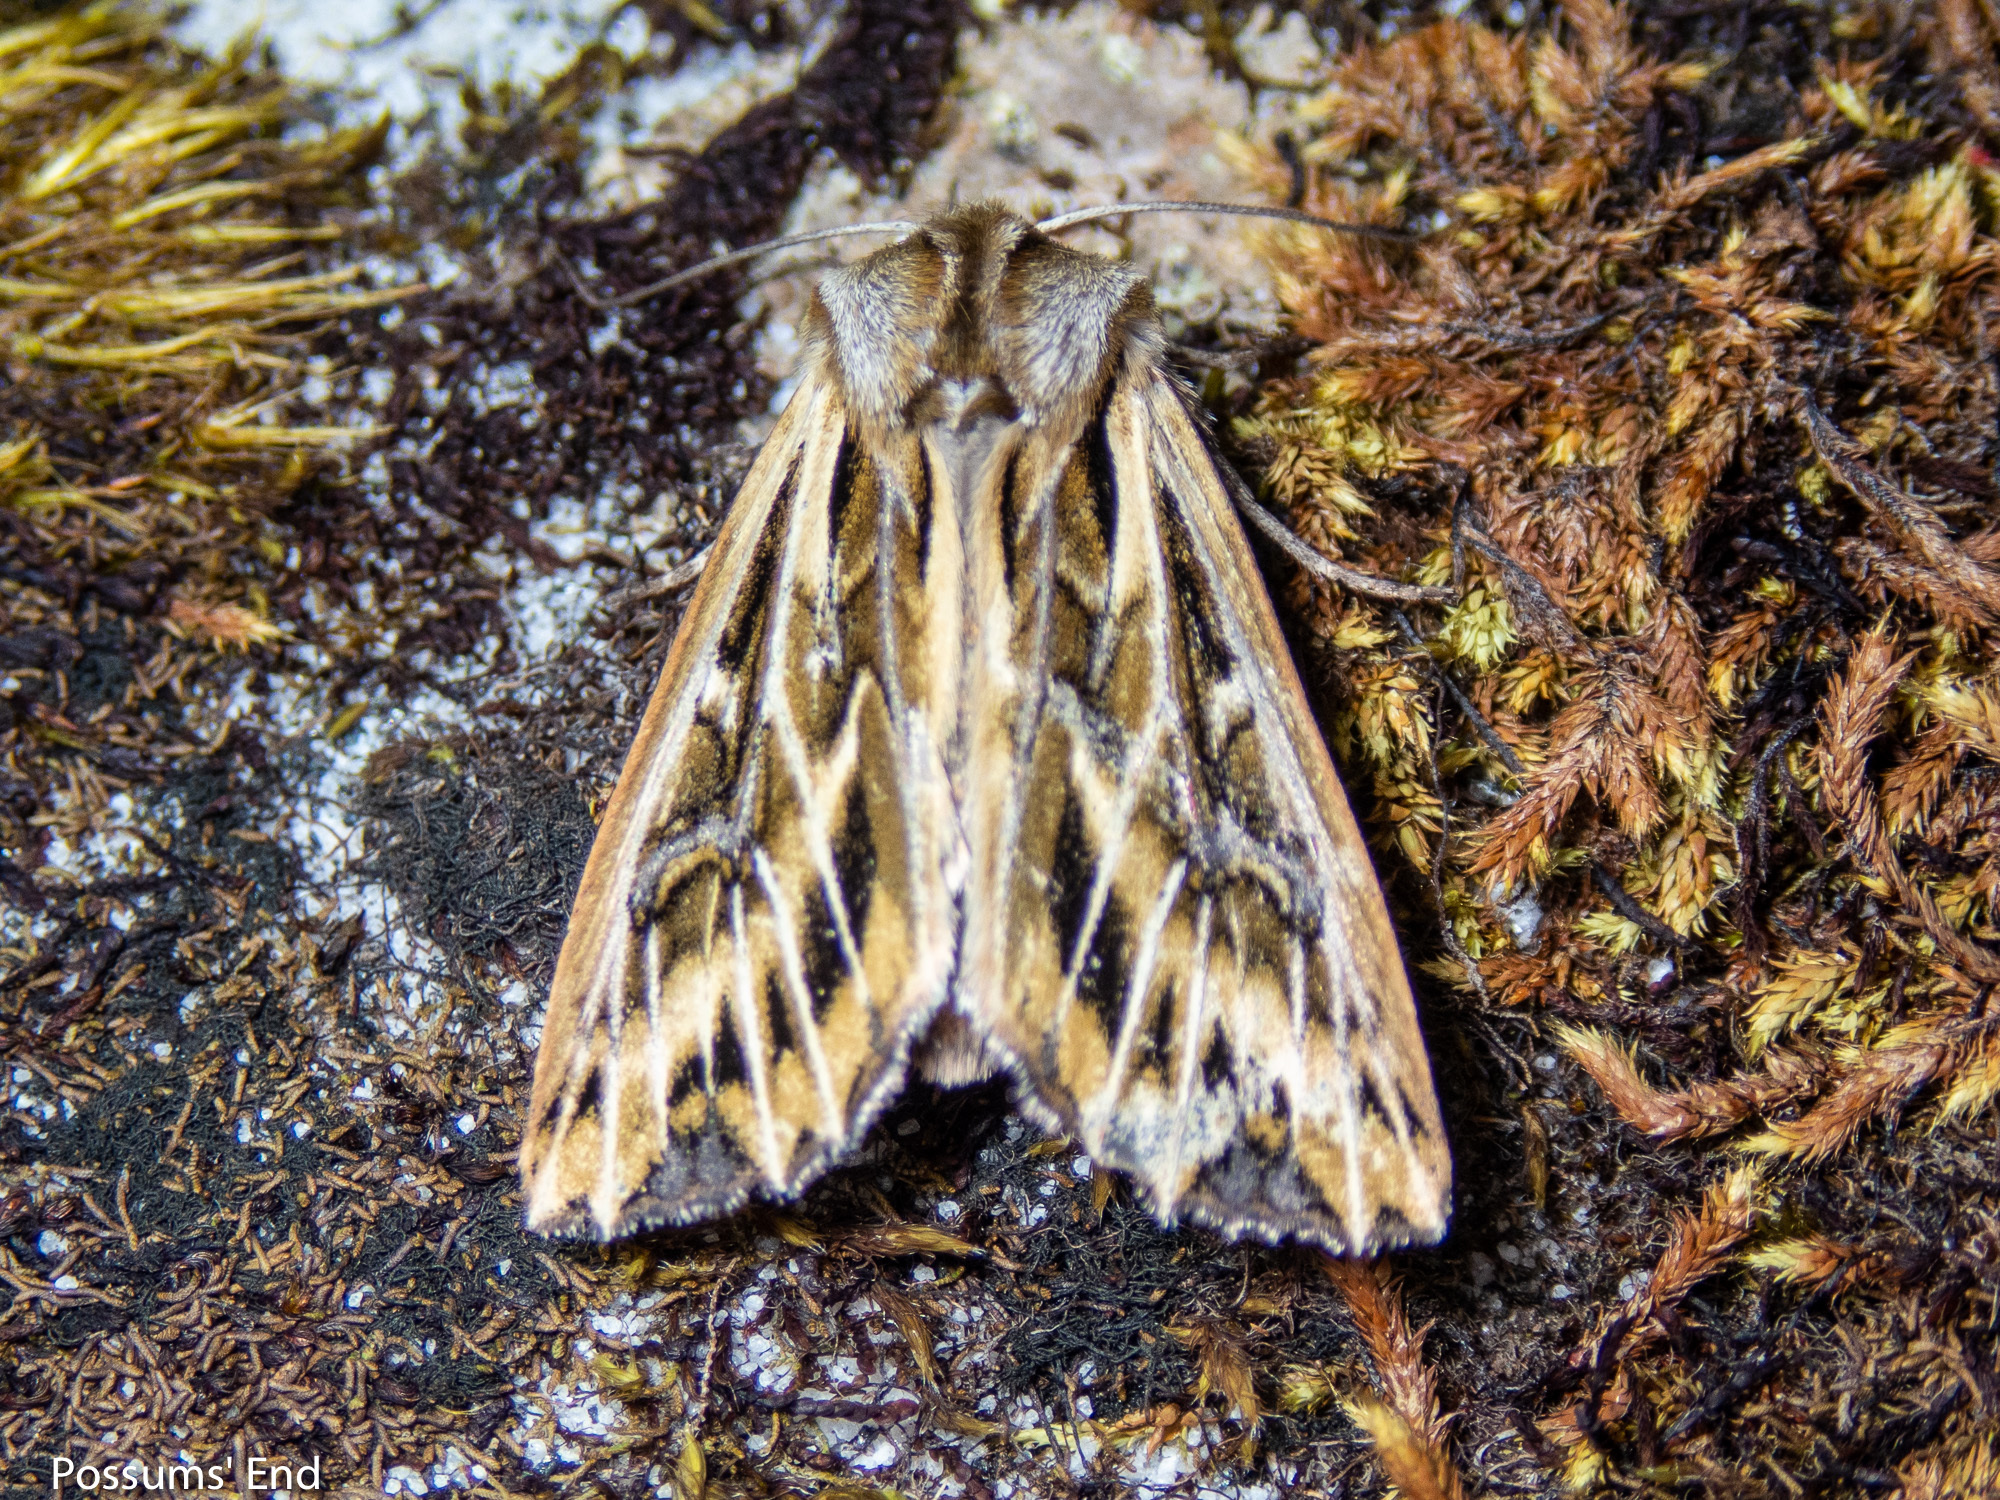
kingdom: Animalia
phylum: Arthropoda
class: Insecta
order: Lepidoptera
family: Noctuidae
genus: Ichneutica
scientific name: Ichneutica
